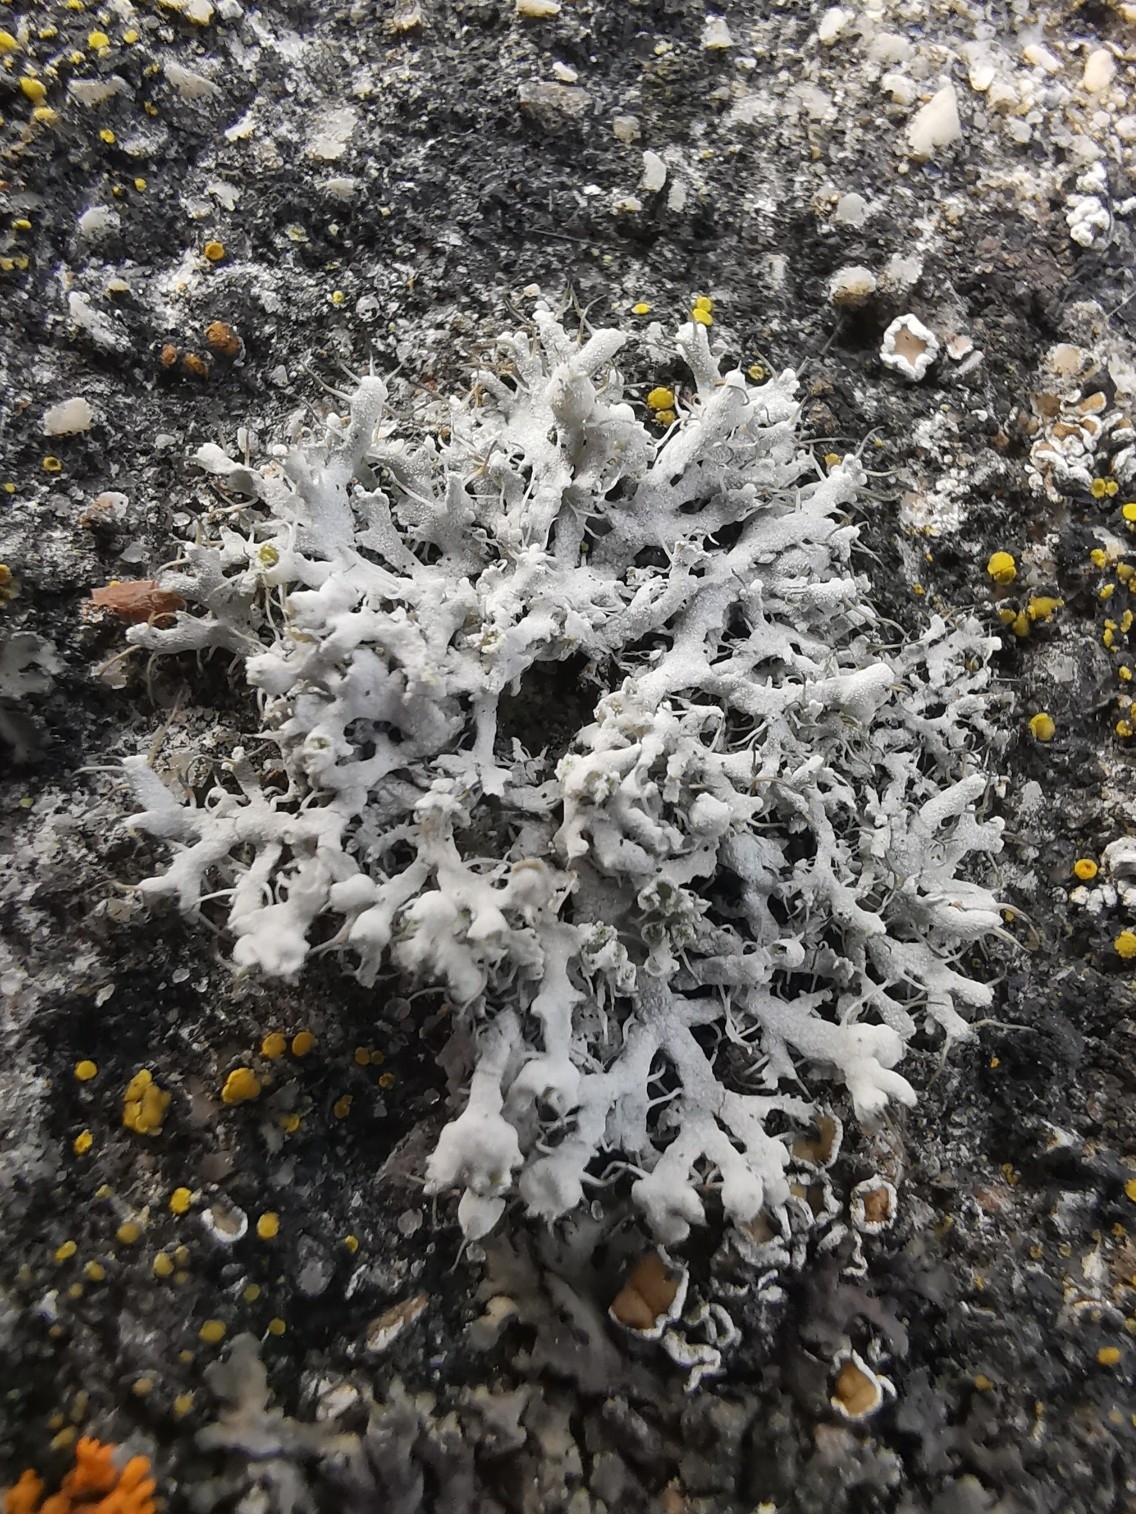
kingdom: Fungi
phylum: Ascomycota
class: Lecanoromycetes
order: Caliciales
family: Physciaceae
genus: Physcia
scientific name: Physcia adscendens
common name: Hooded rosette lichen
